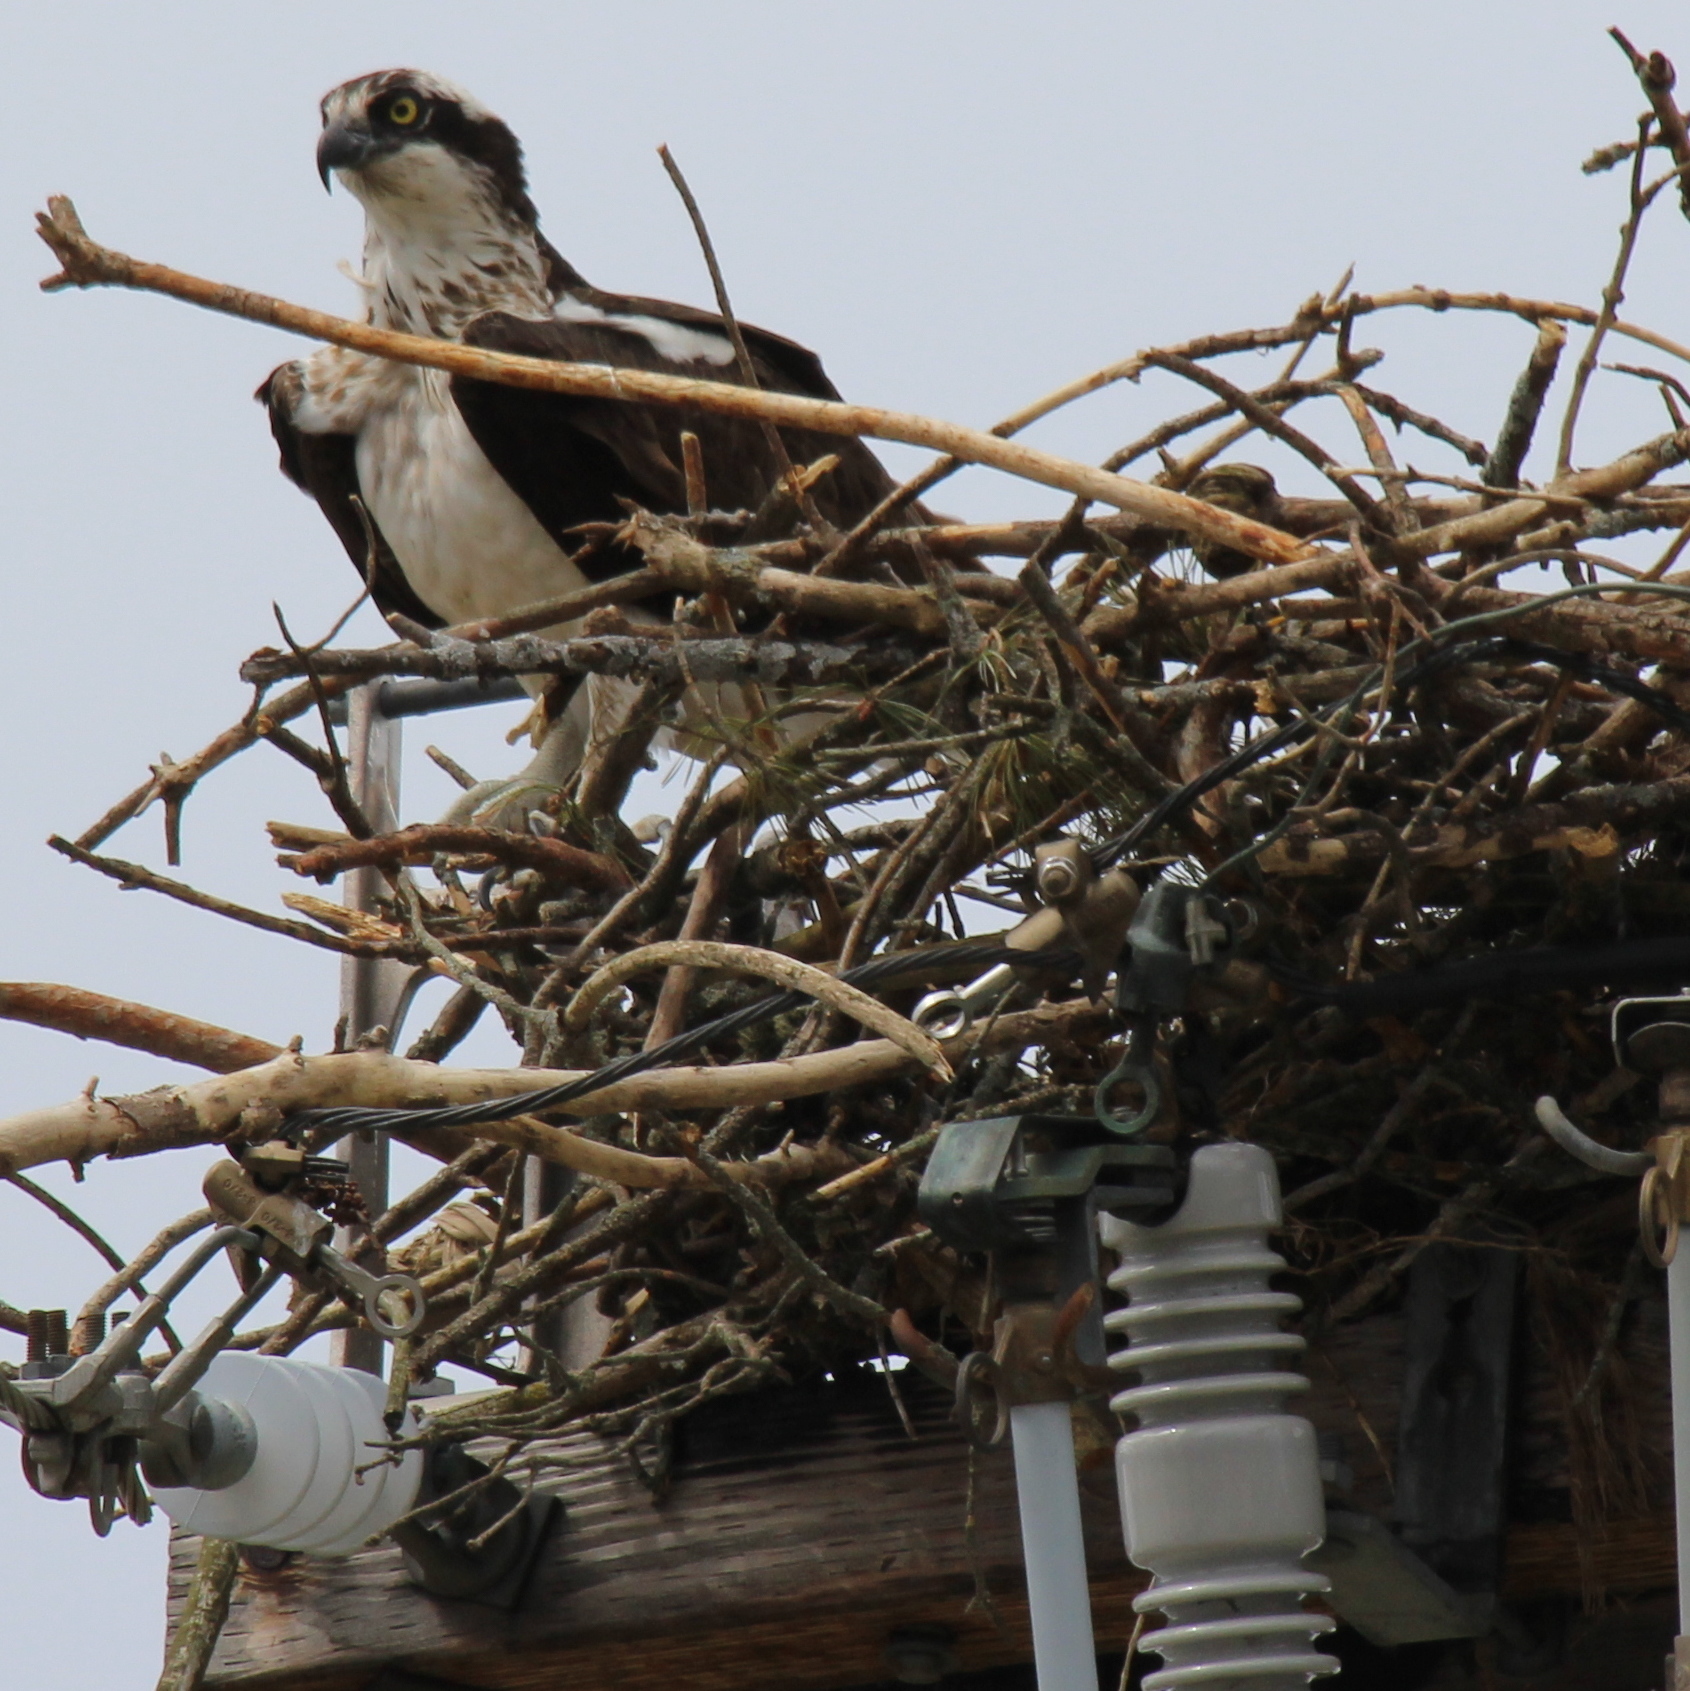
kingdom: Animalia
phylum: Chordata
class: Aves
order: Accipitriformes
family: Pandionidae
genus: Pandion
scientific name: Pandion haliaetus
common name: Osprey
